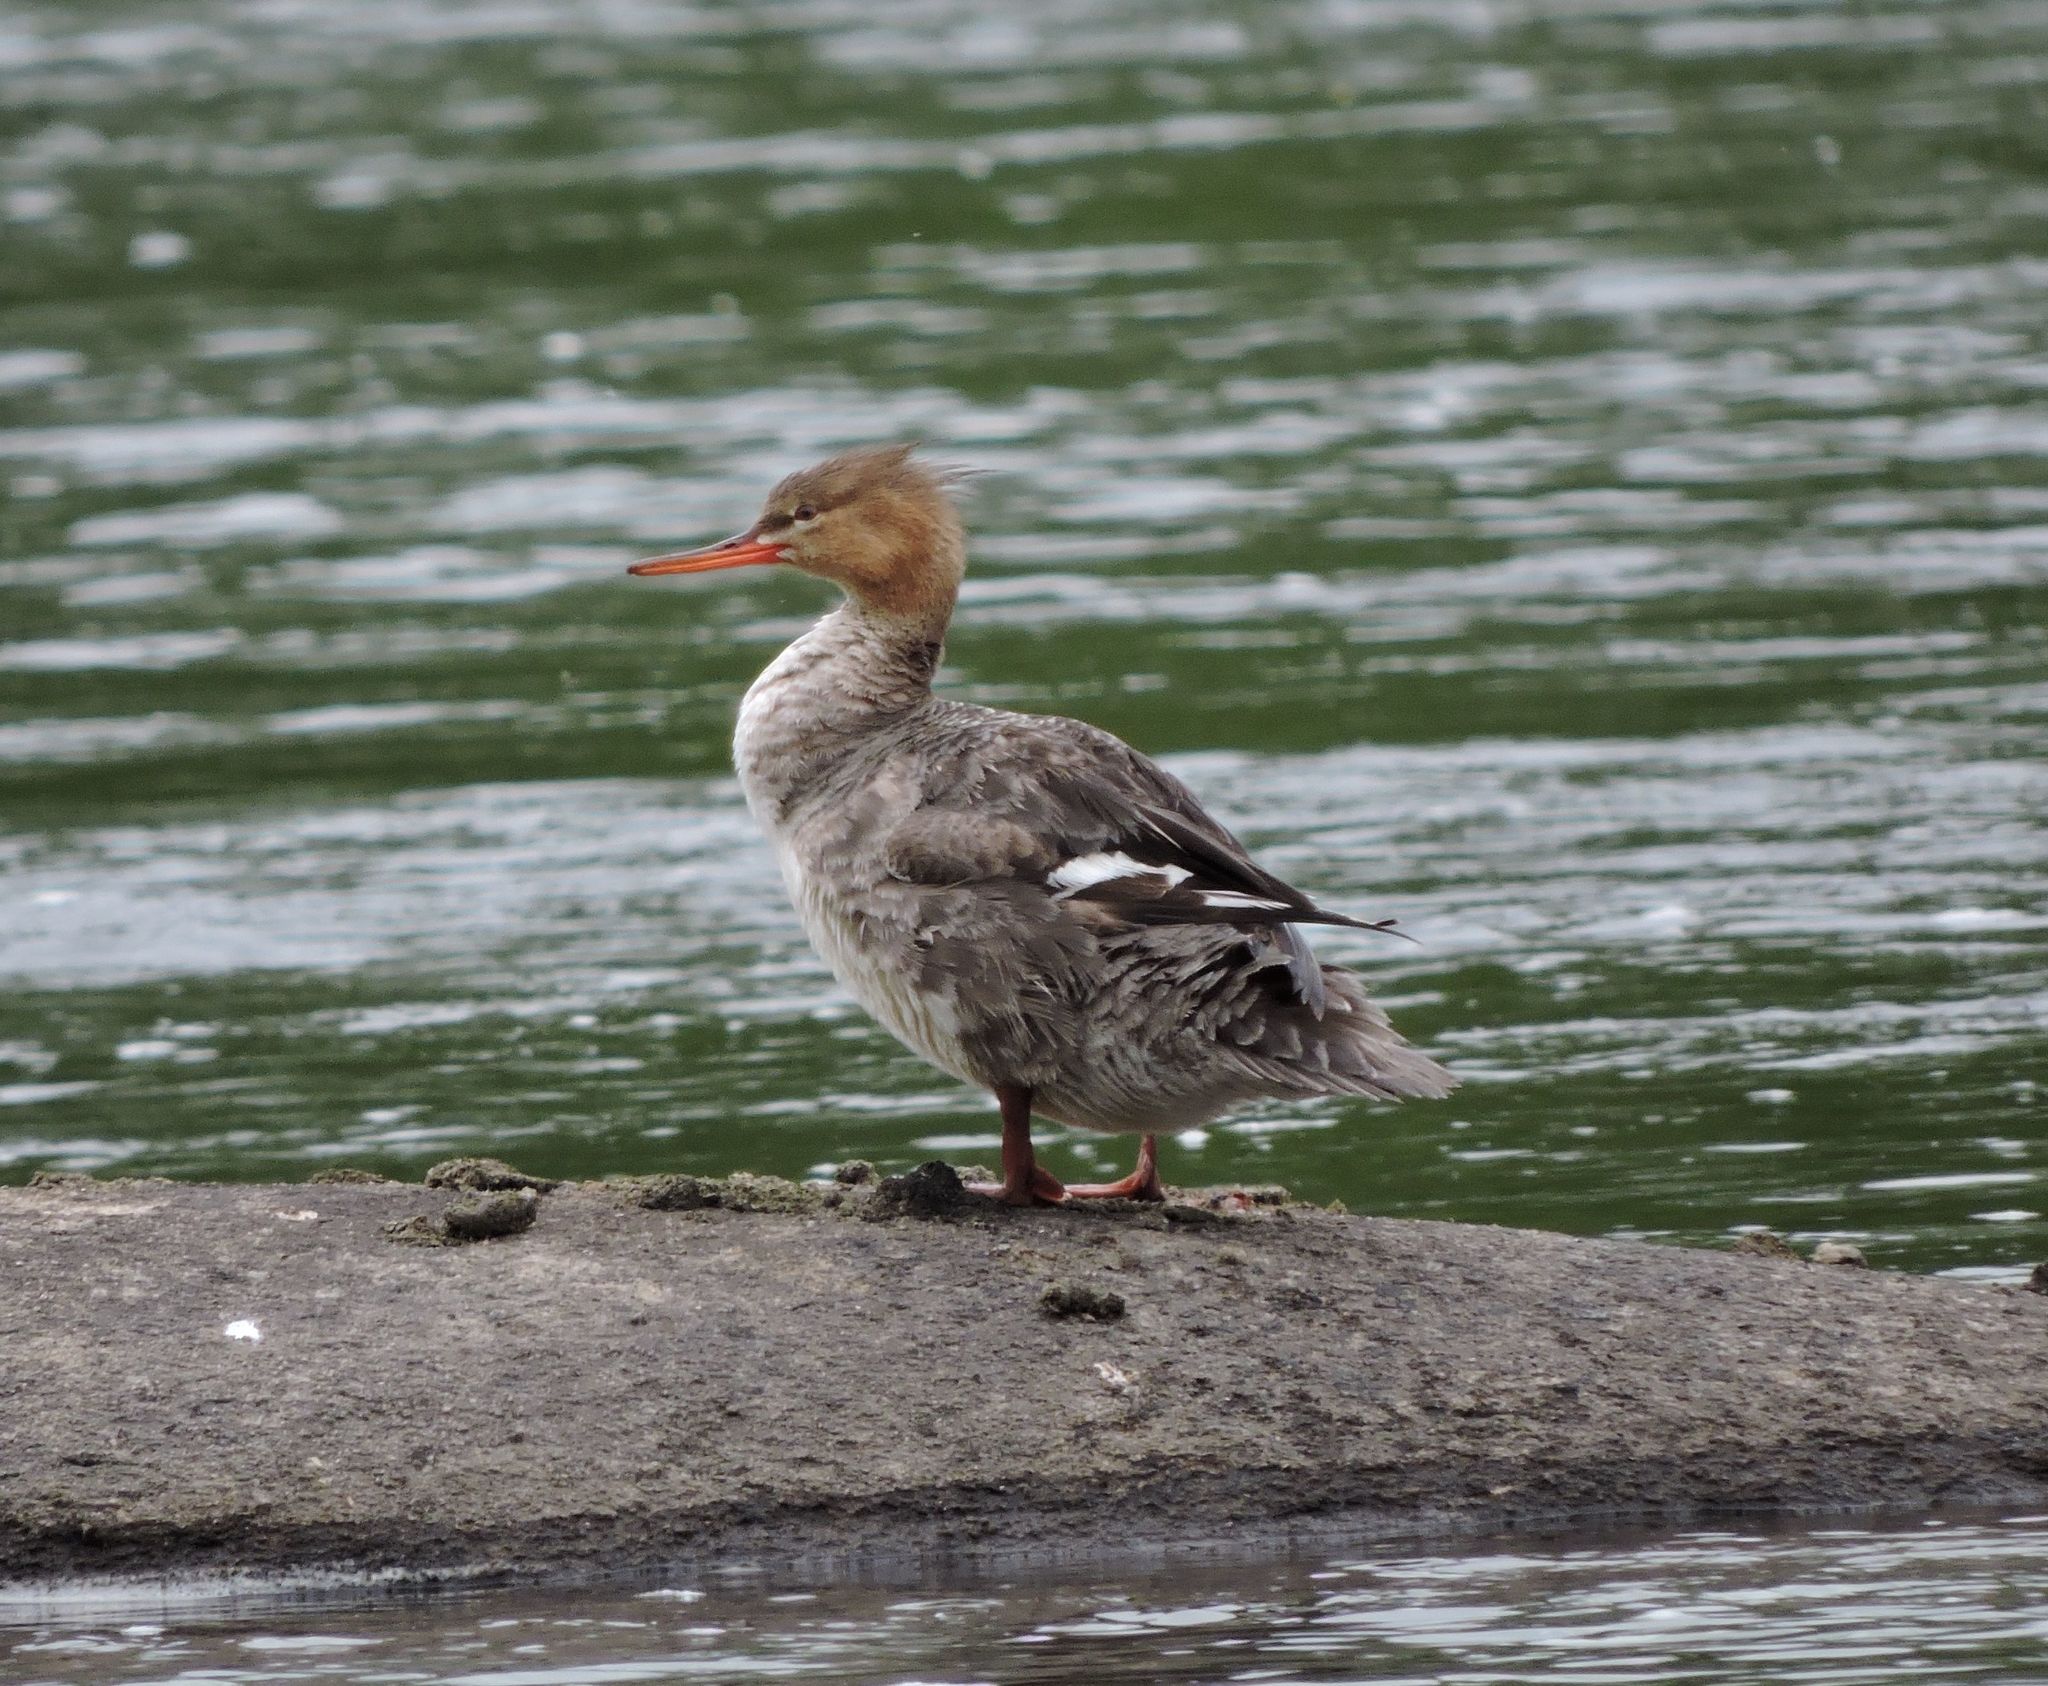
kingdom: Animalia
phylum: Chordata
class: Aves
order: Anseriformes
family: Anatidae
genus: Mergus
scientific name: Mergus serrator
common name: Red-breasted merganser
